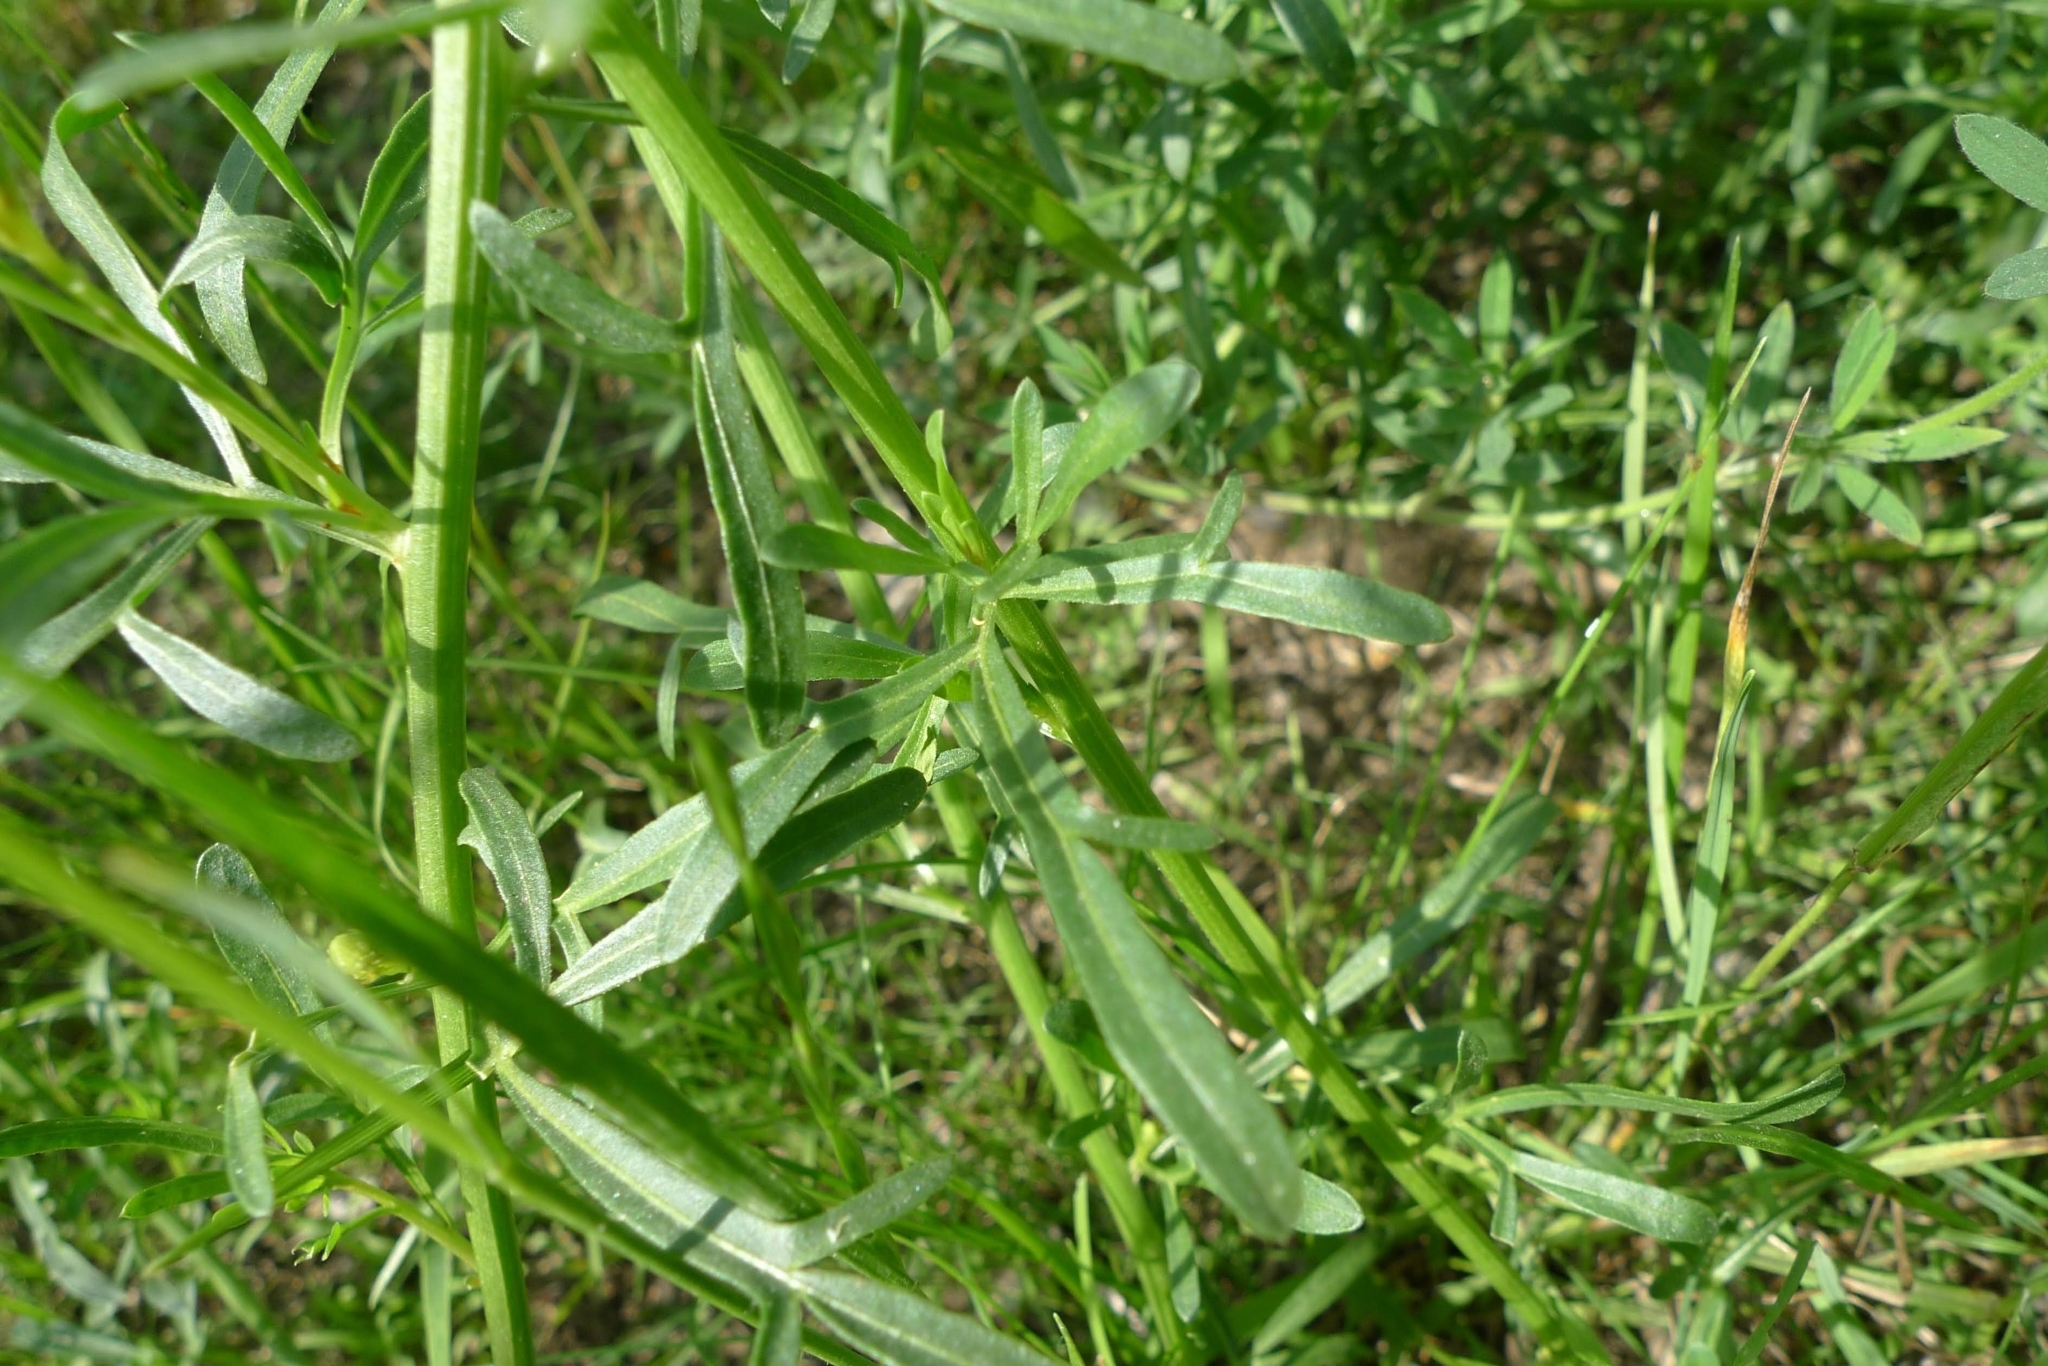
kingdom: Plantae
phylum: Tracheophyta
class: Magnoliopsida
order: Brassicales
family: Resedaceae
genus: Reseda
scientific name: Reseda lutea
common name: Wild mignonette
